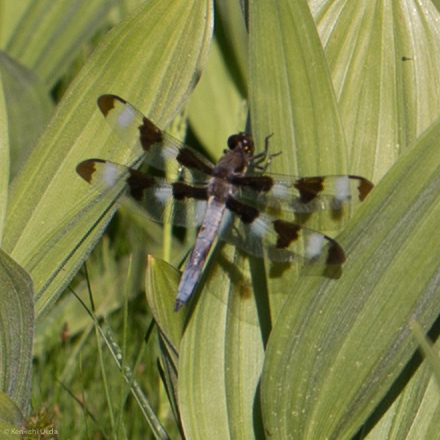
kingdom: Animalia
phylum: Arthropoda
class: Insecta
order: Odonata
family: Libellulidae
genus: Libellula
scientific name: Libellula pulchella
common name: Twelve-spotted skimmer
